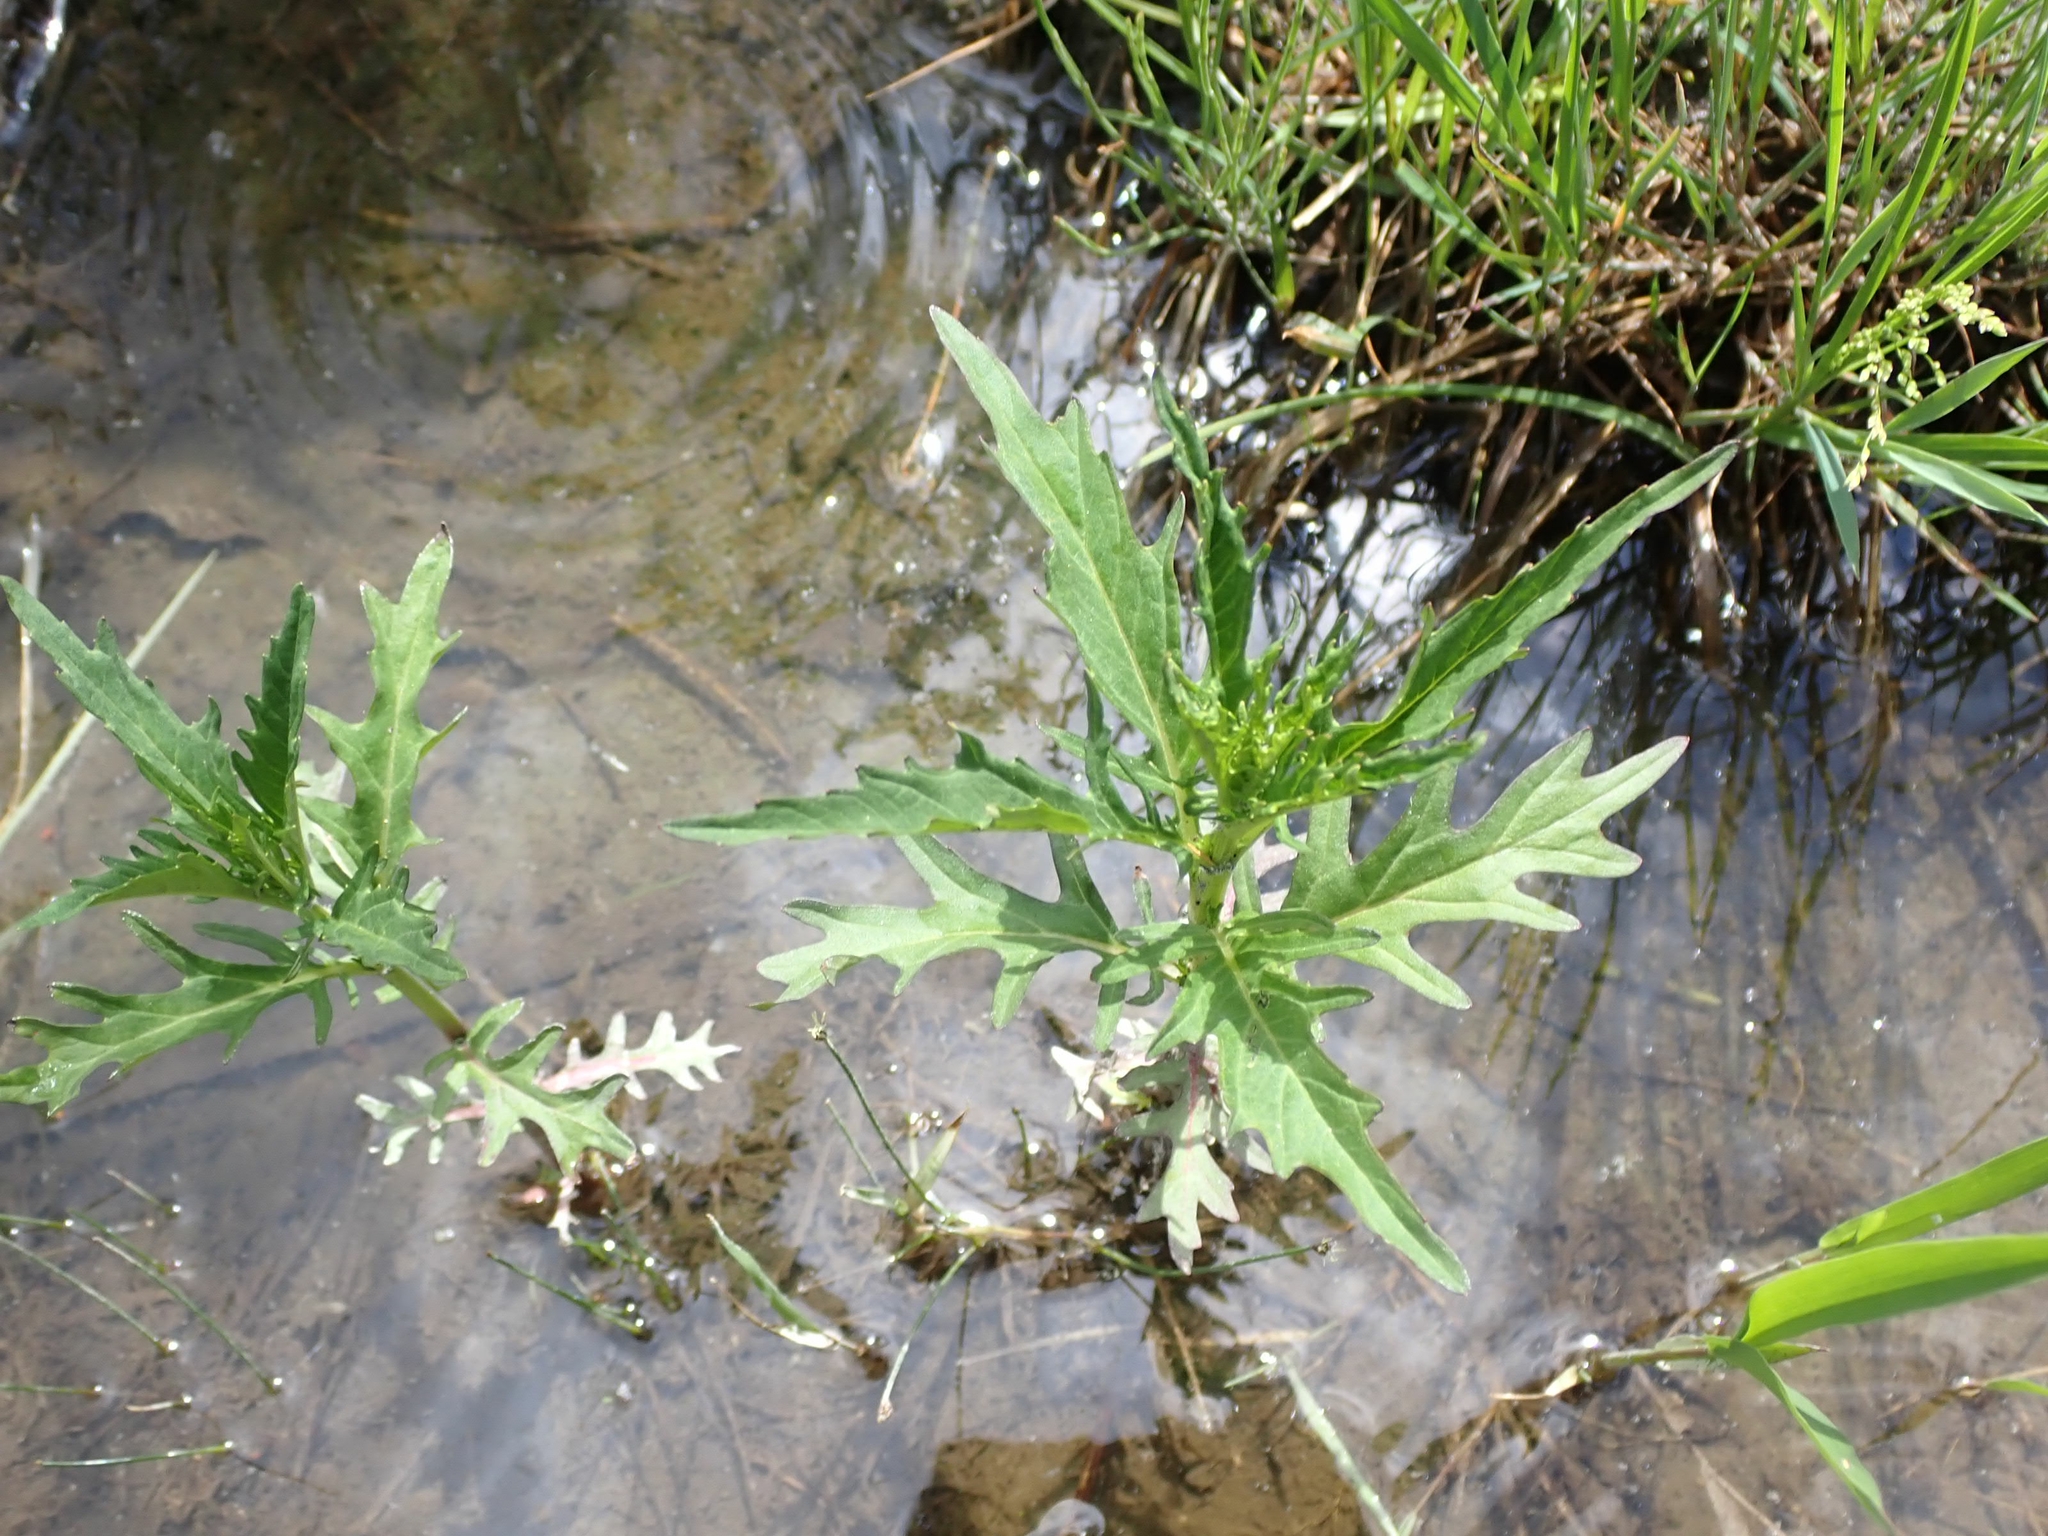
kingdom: Plantae
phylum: Tracheophyta
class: Magnoliopsida
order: Lamiales
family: Lamiaceae
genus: Lycopus
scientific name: Lycopus americanus
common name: American bugleweed
